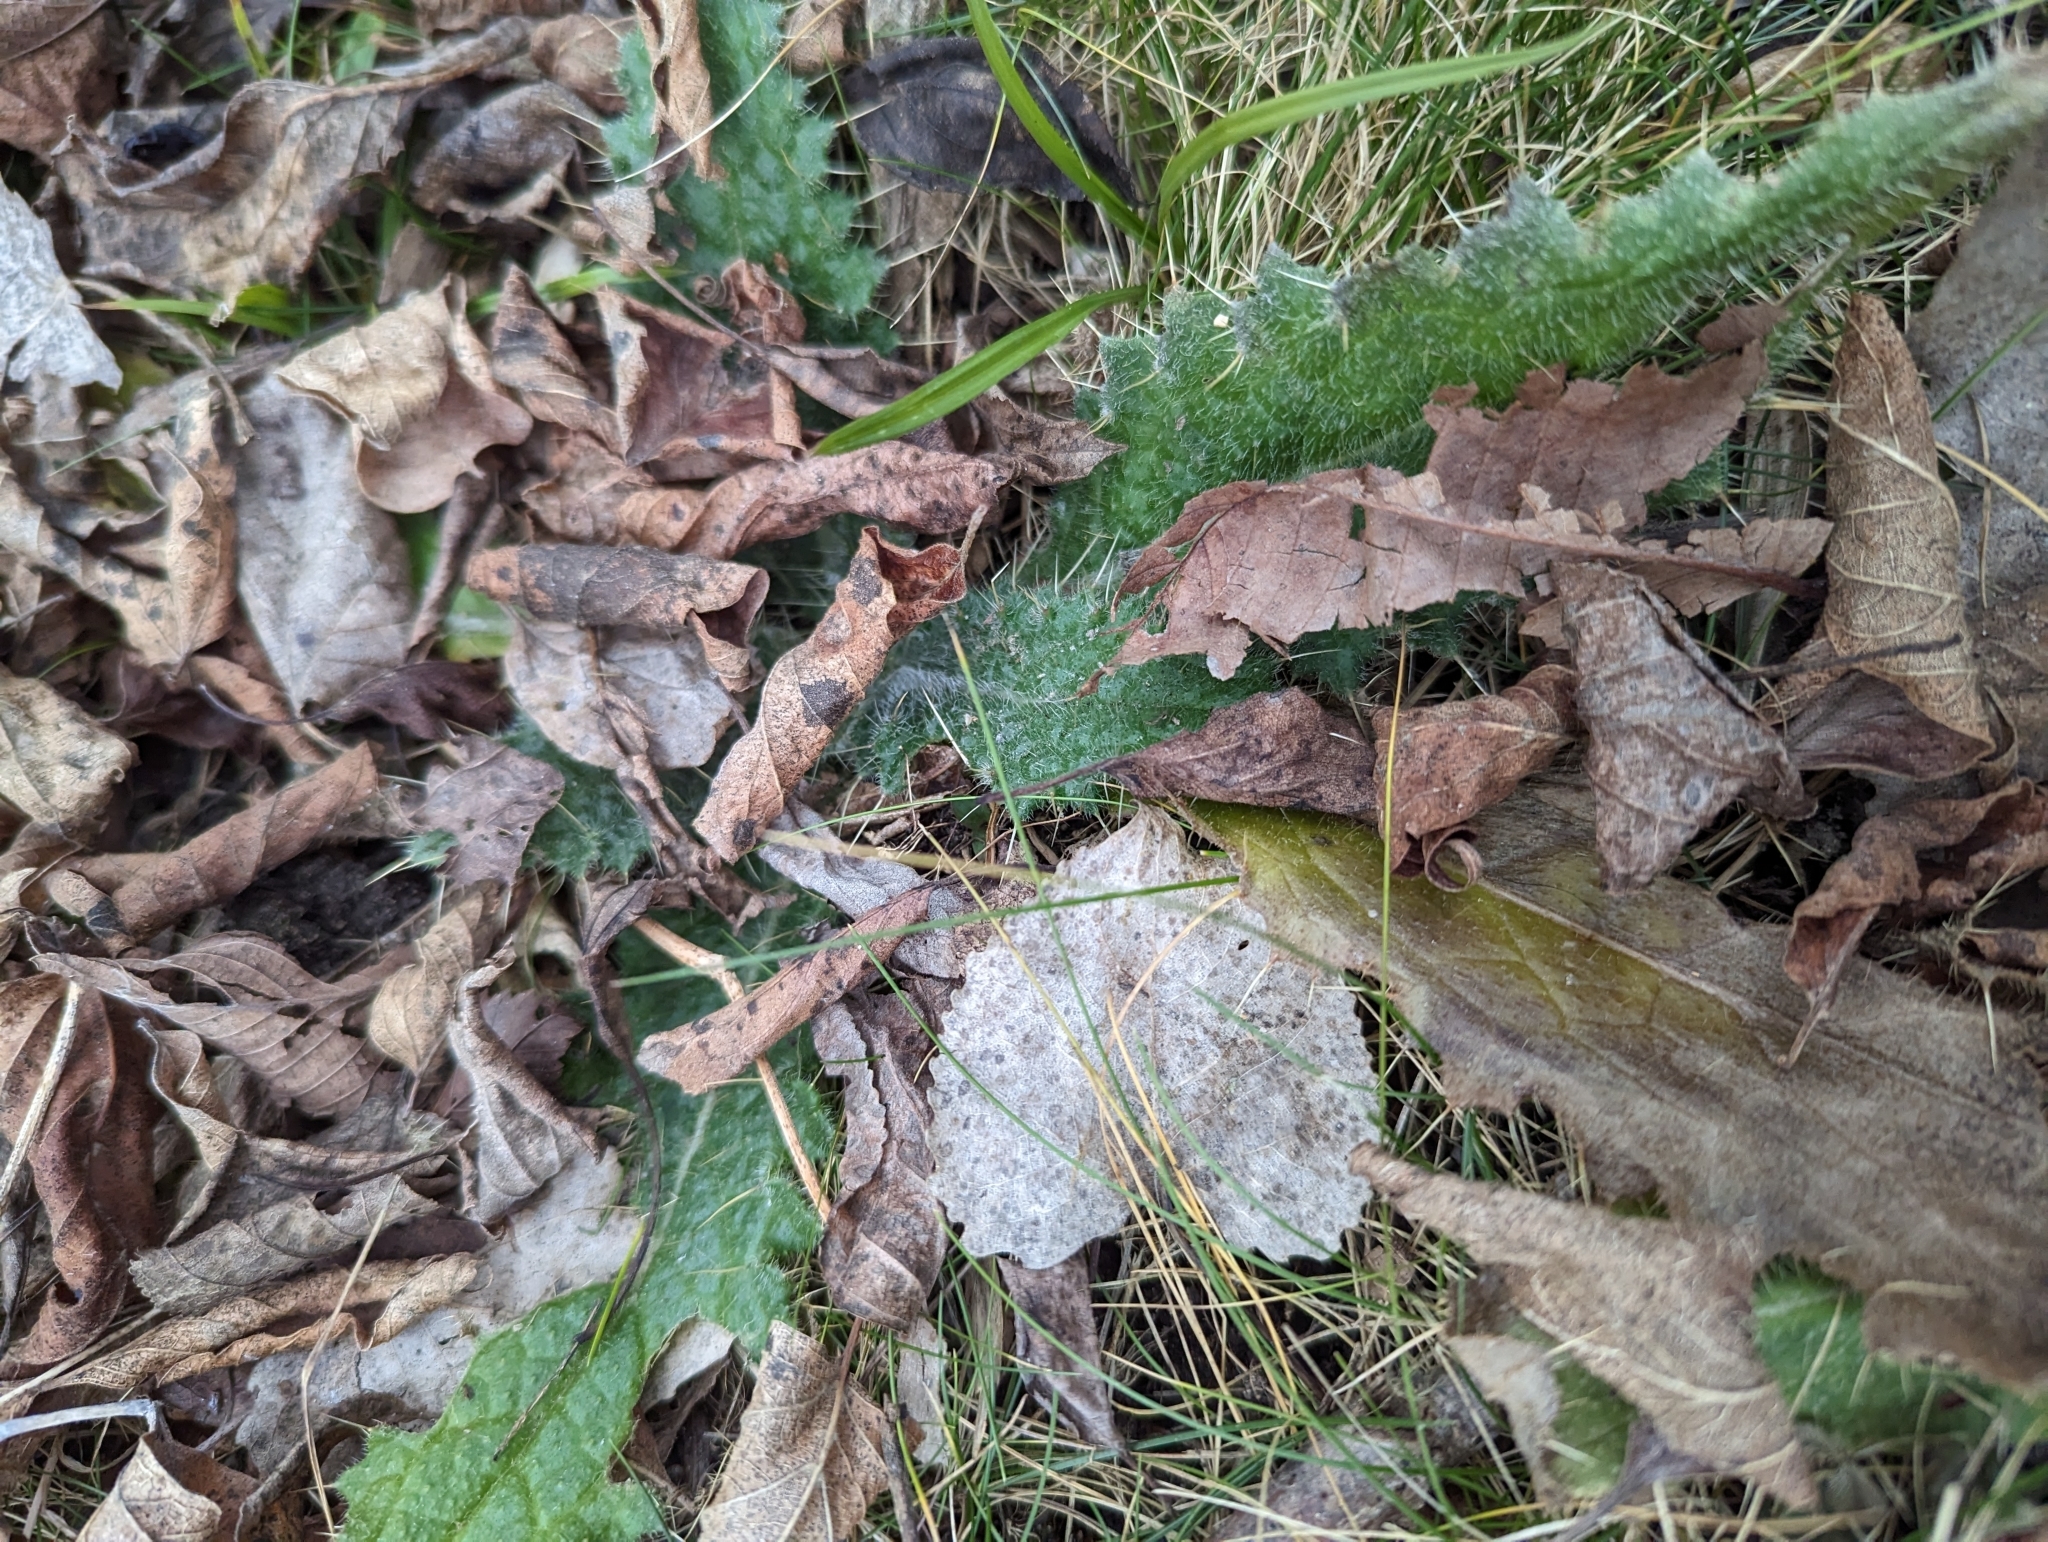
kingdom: Plantae
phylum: Tracheophyta
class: Magnoliopsida
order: Asterales
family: Asteraceae
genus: Cirsium
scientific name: Cirsium vulgare
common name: Bull thistle
